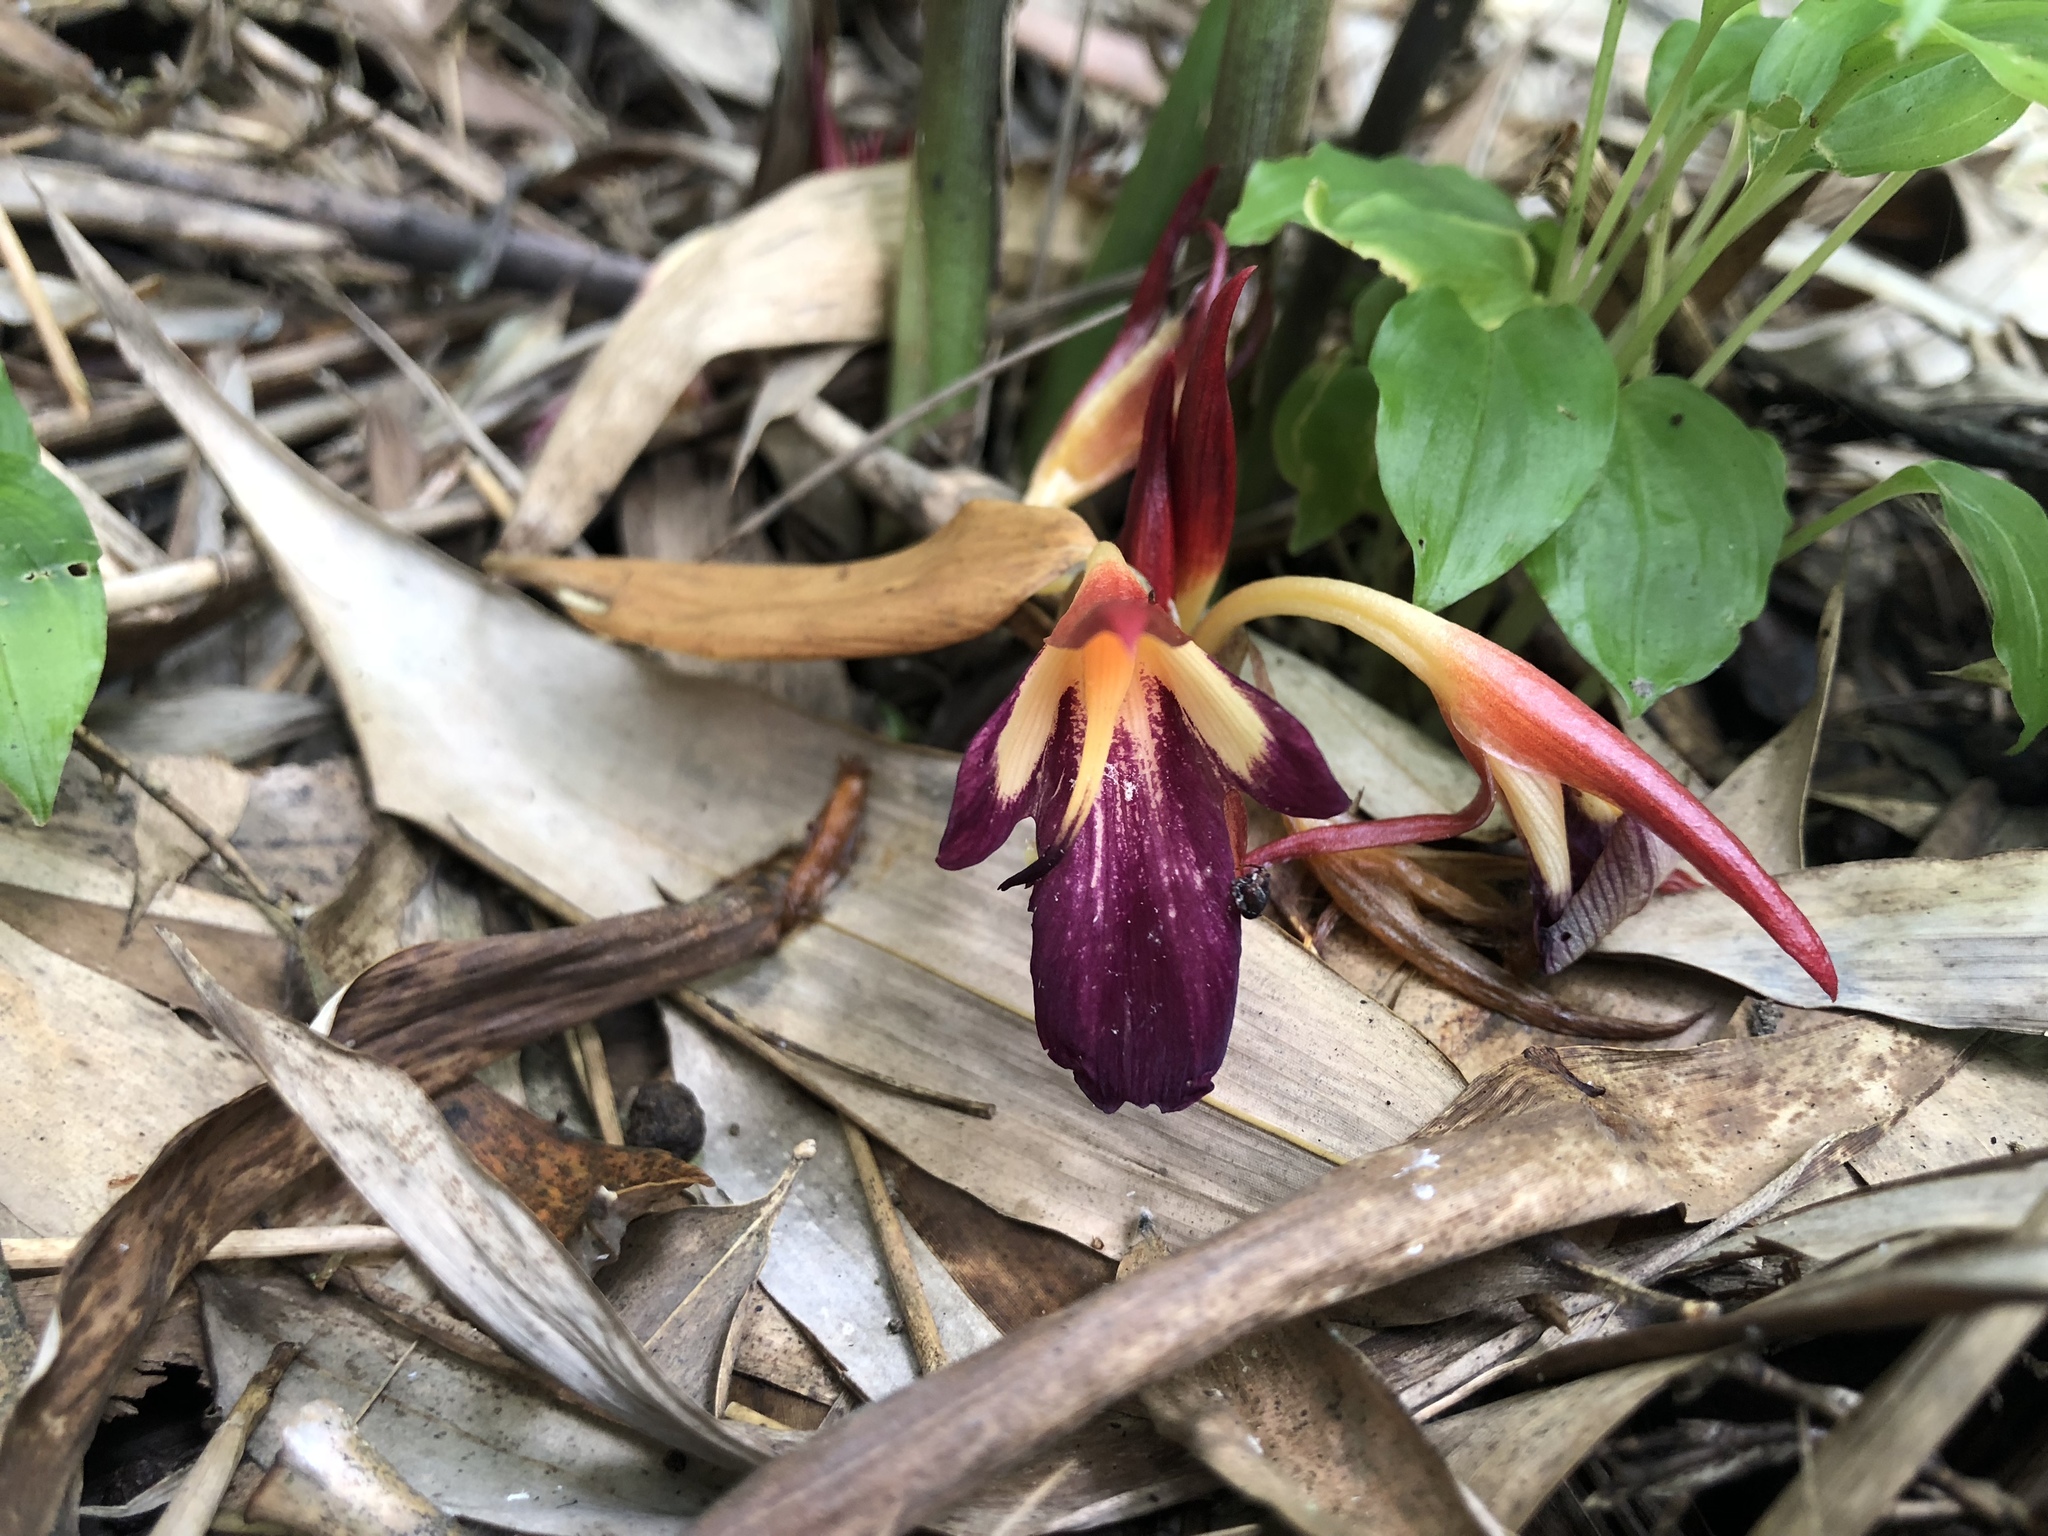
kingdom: Plantae
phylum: Tracheophyta
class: Liliopsida
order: Zingiberales
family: Zingiberaceae
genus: Zingiber
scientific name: Zingiber kawagoii
